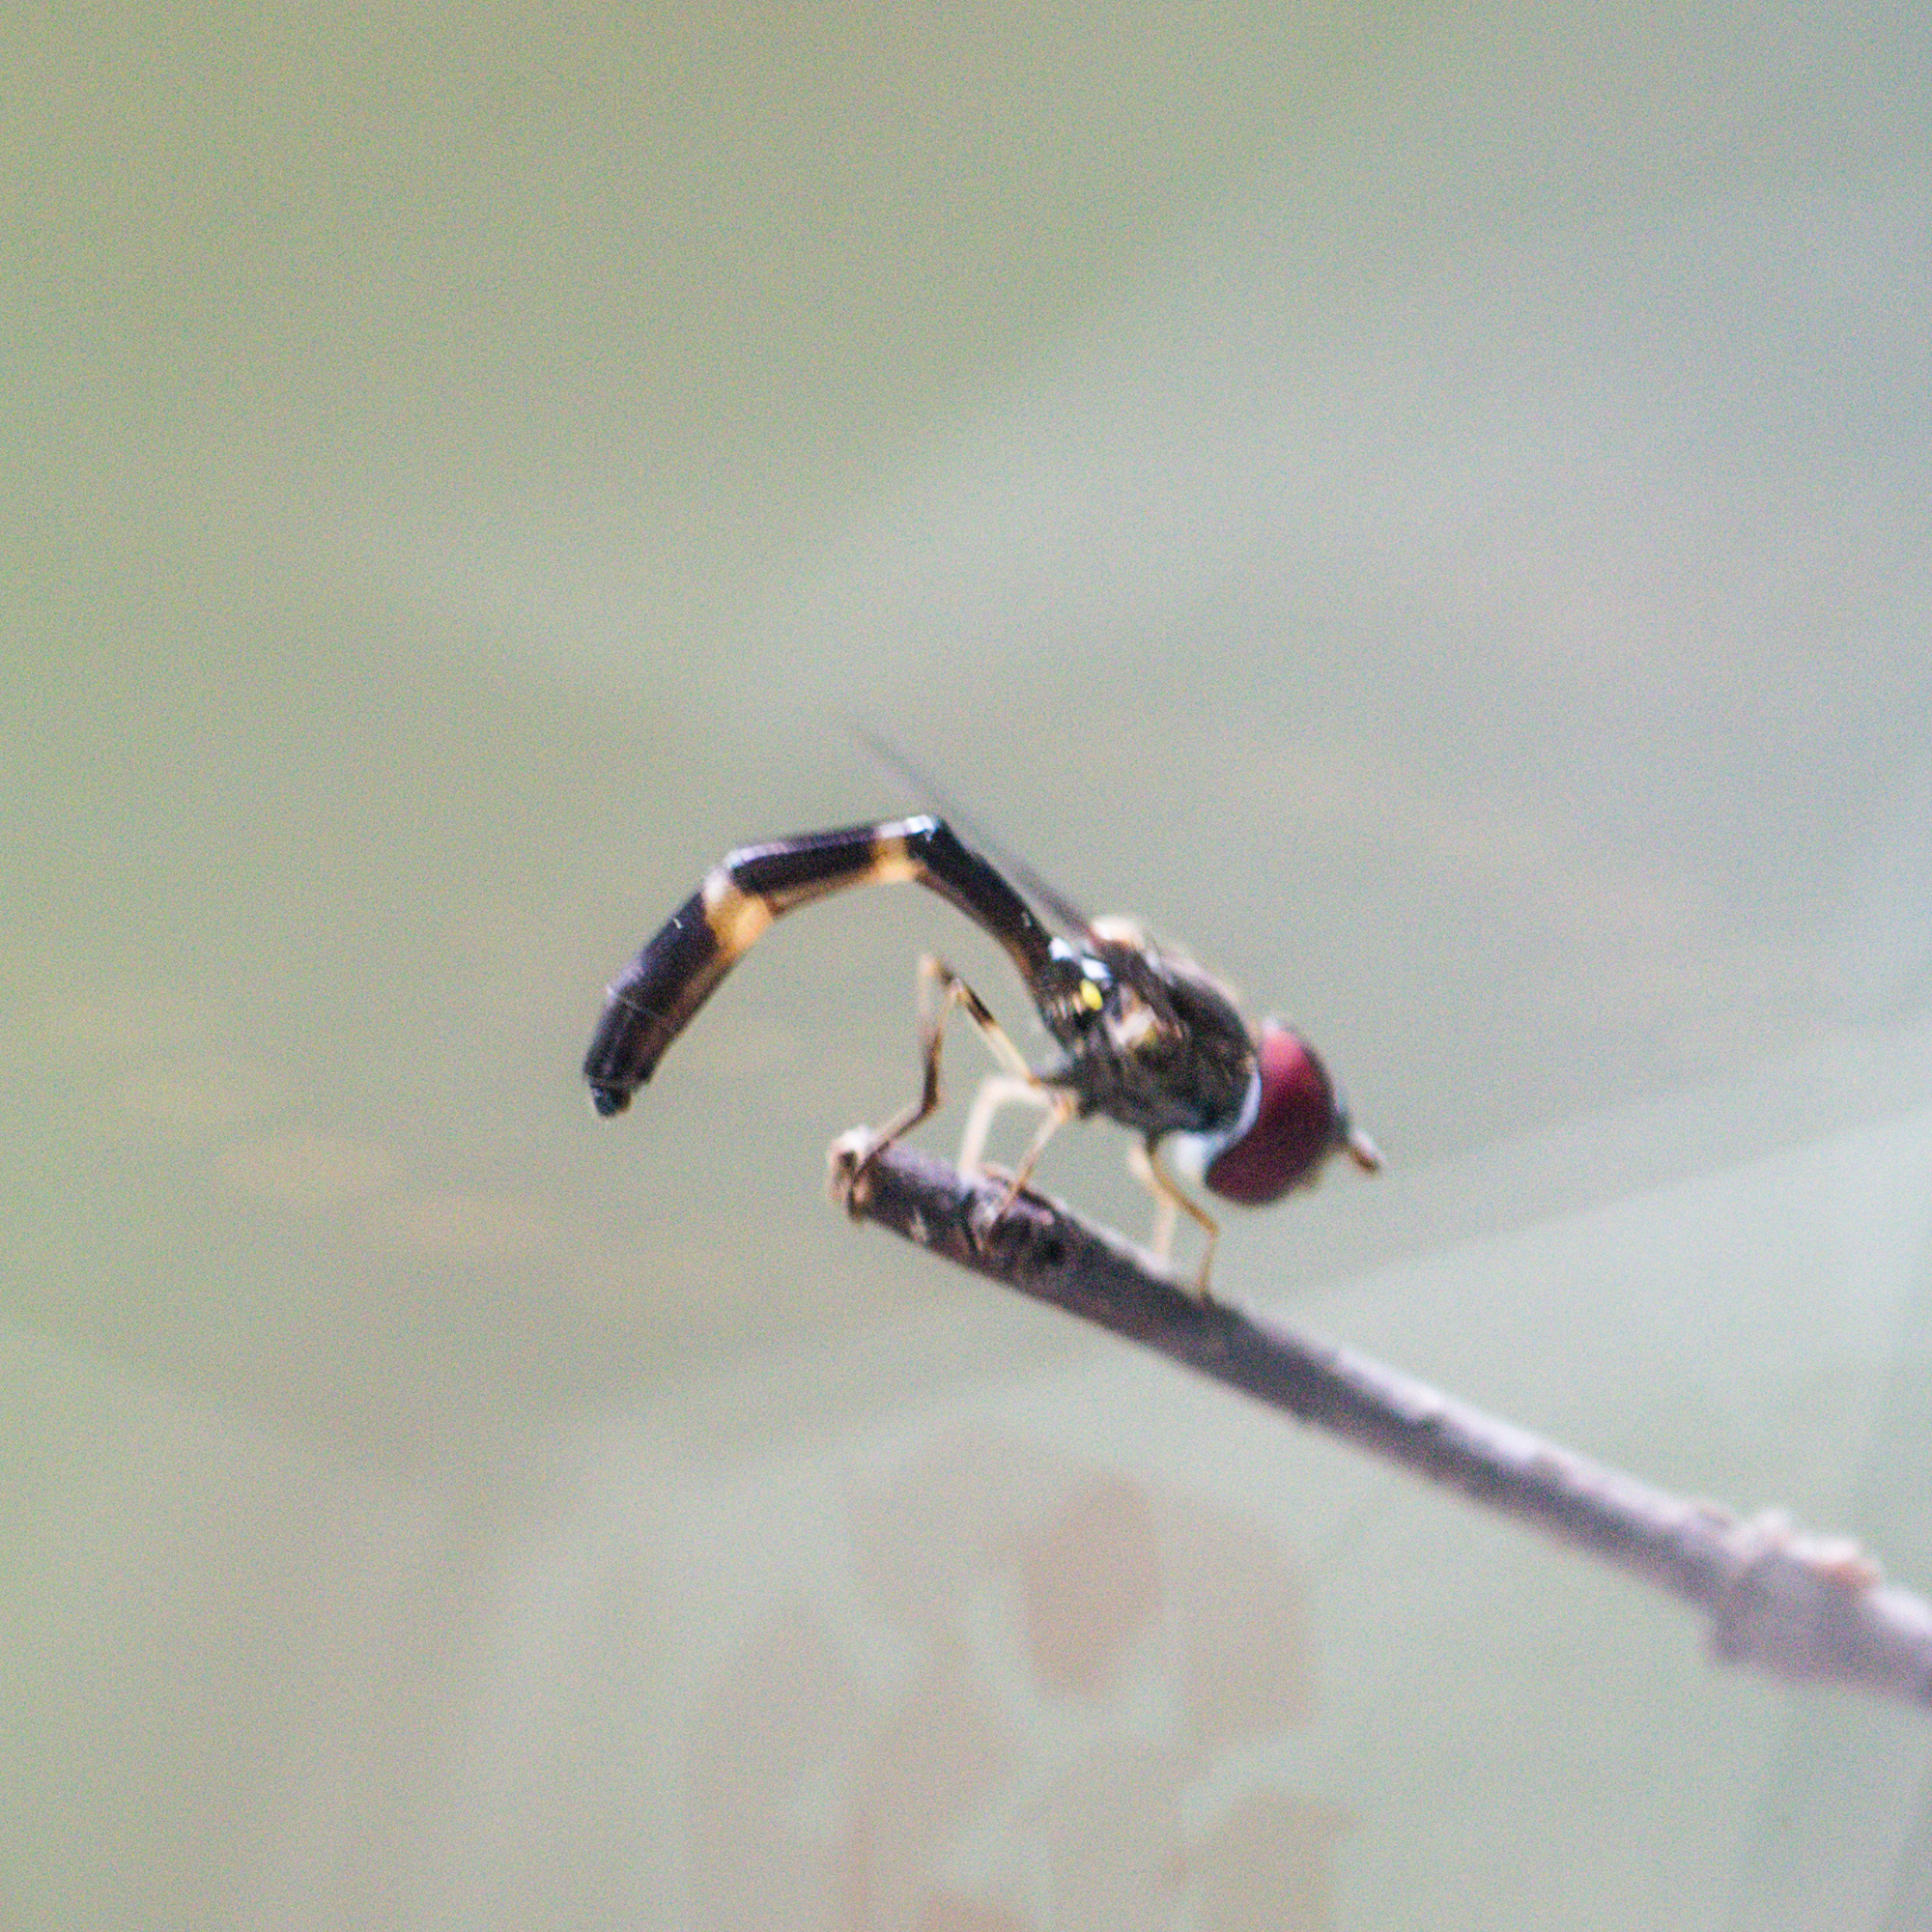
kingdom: Animalia
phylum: Arthropoda
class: Insecta
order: Diptera
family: Syrphidae
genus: Hypocritanus
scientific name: Hypocritanus fascipennis
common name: Eastern band-winged hover fly
